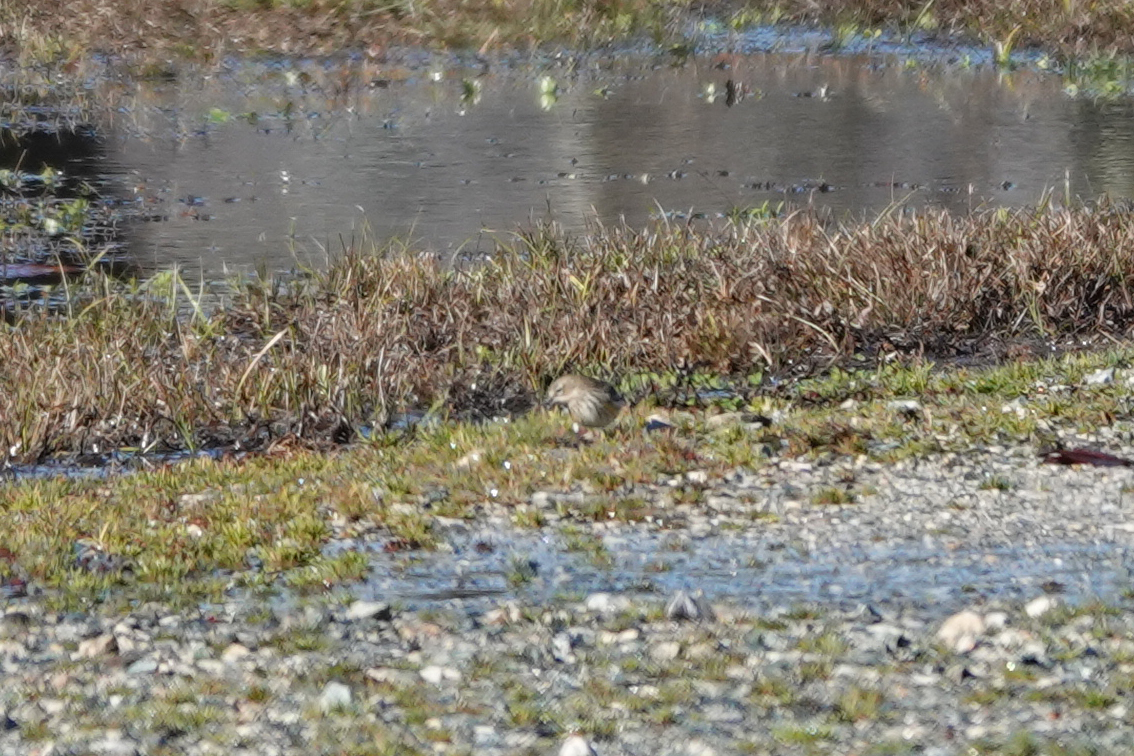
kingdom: Animalia
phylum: Chordata
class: Aves
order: Passeriformes
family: Parulidae
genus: Setophaga
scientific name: Setophaga coronata
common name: Myrtle warbler
